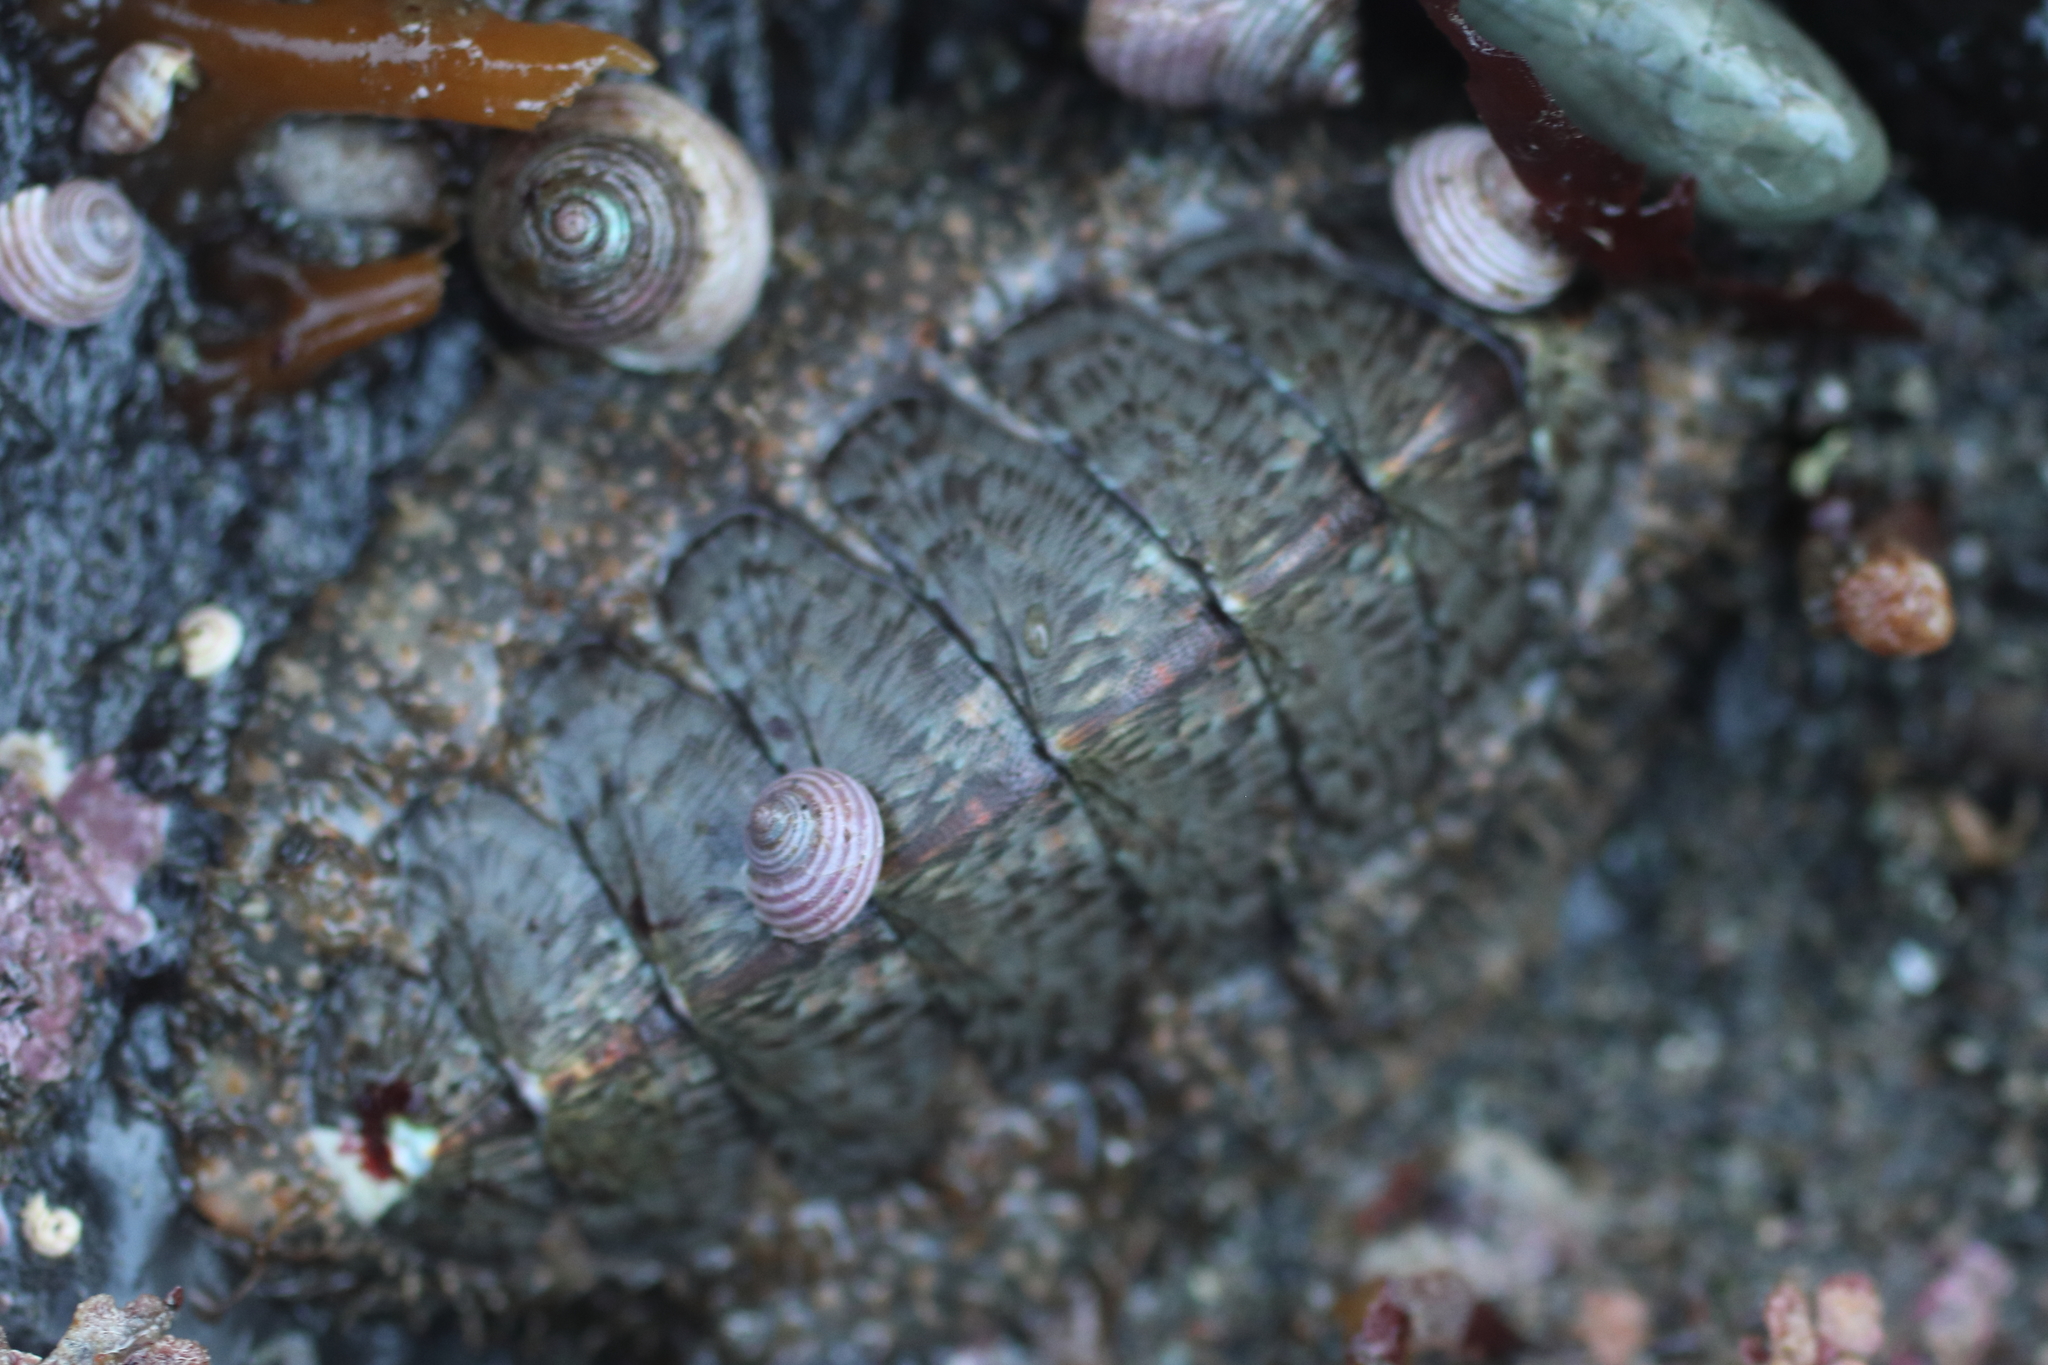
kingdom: Animalia
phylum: Mollusca
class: Polyplacophora
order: Chitonida
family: Mopaliidae
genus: Mopalia
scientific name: Mopalia lignosa
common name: Woody chiton
